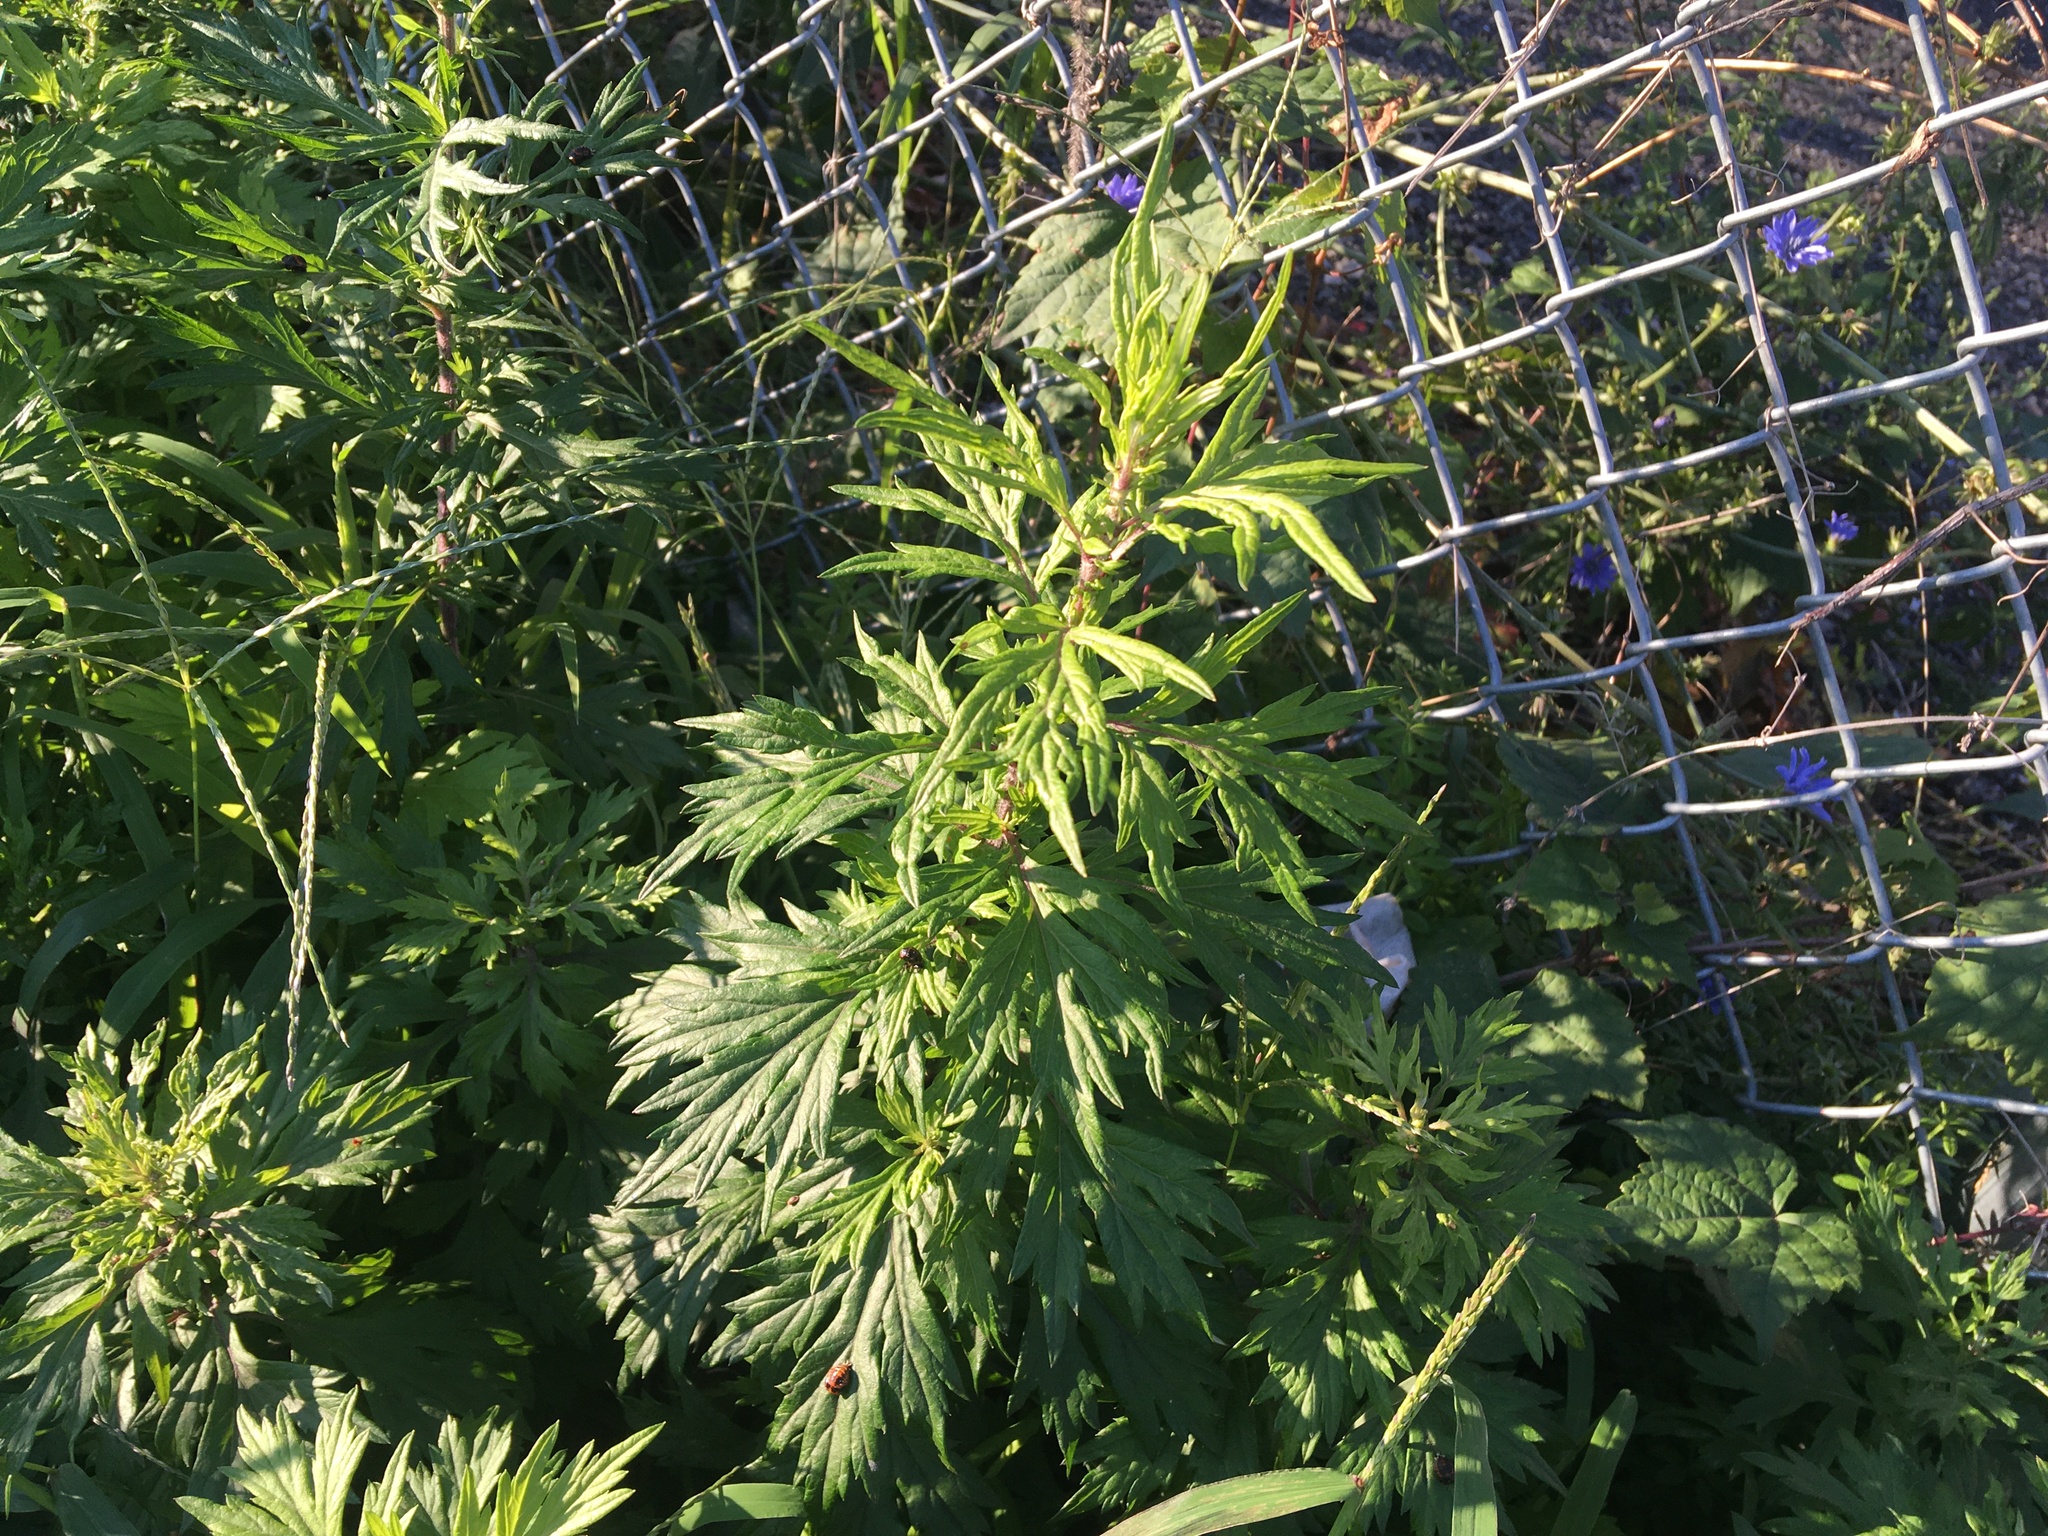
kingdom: Plantae
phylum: Tracheophyta
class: Magnoliopsida
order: Asterales
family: Asteraceae
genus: Artemisia
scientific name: Artemisia vulgaris
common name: Mugwort
